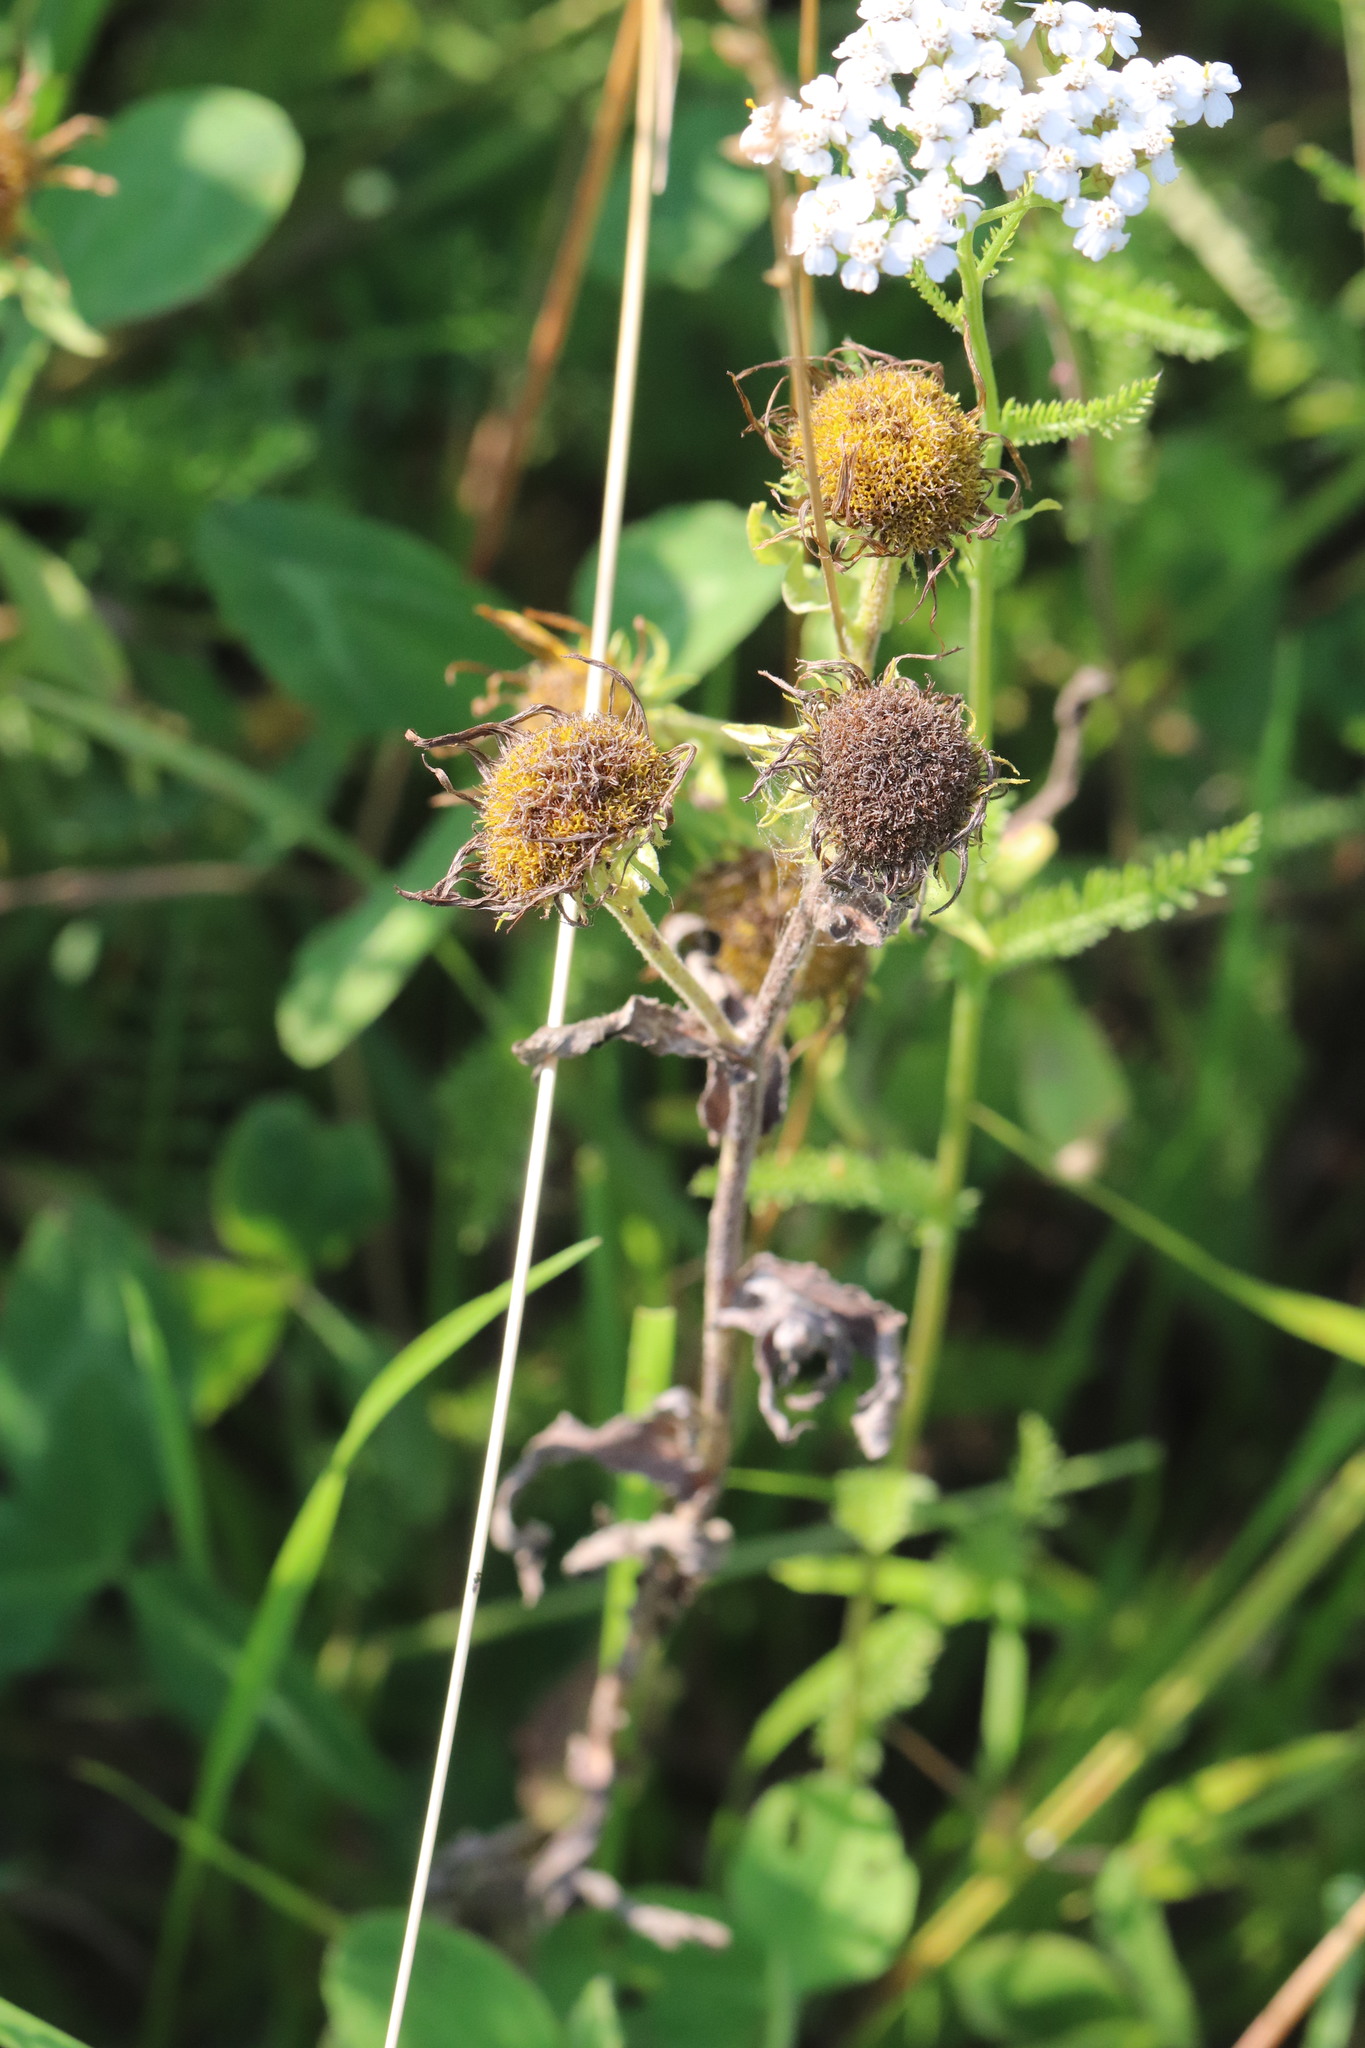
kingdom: Plantae
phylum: Tracheophyta
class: Magnoliopsida
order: Asterales
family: Asteraceae
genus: Pentanema
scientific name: Pentanema britannicum
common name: British elecampane
